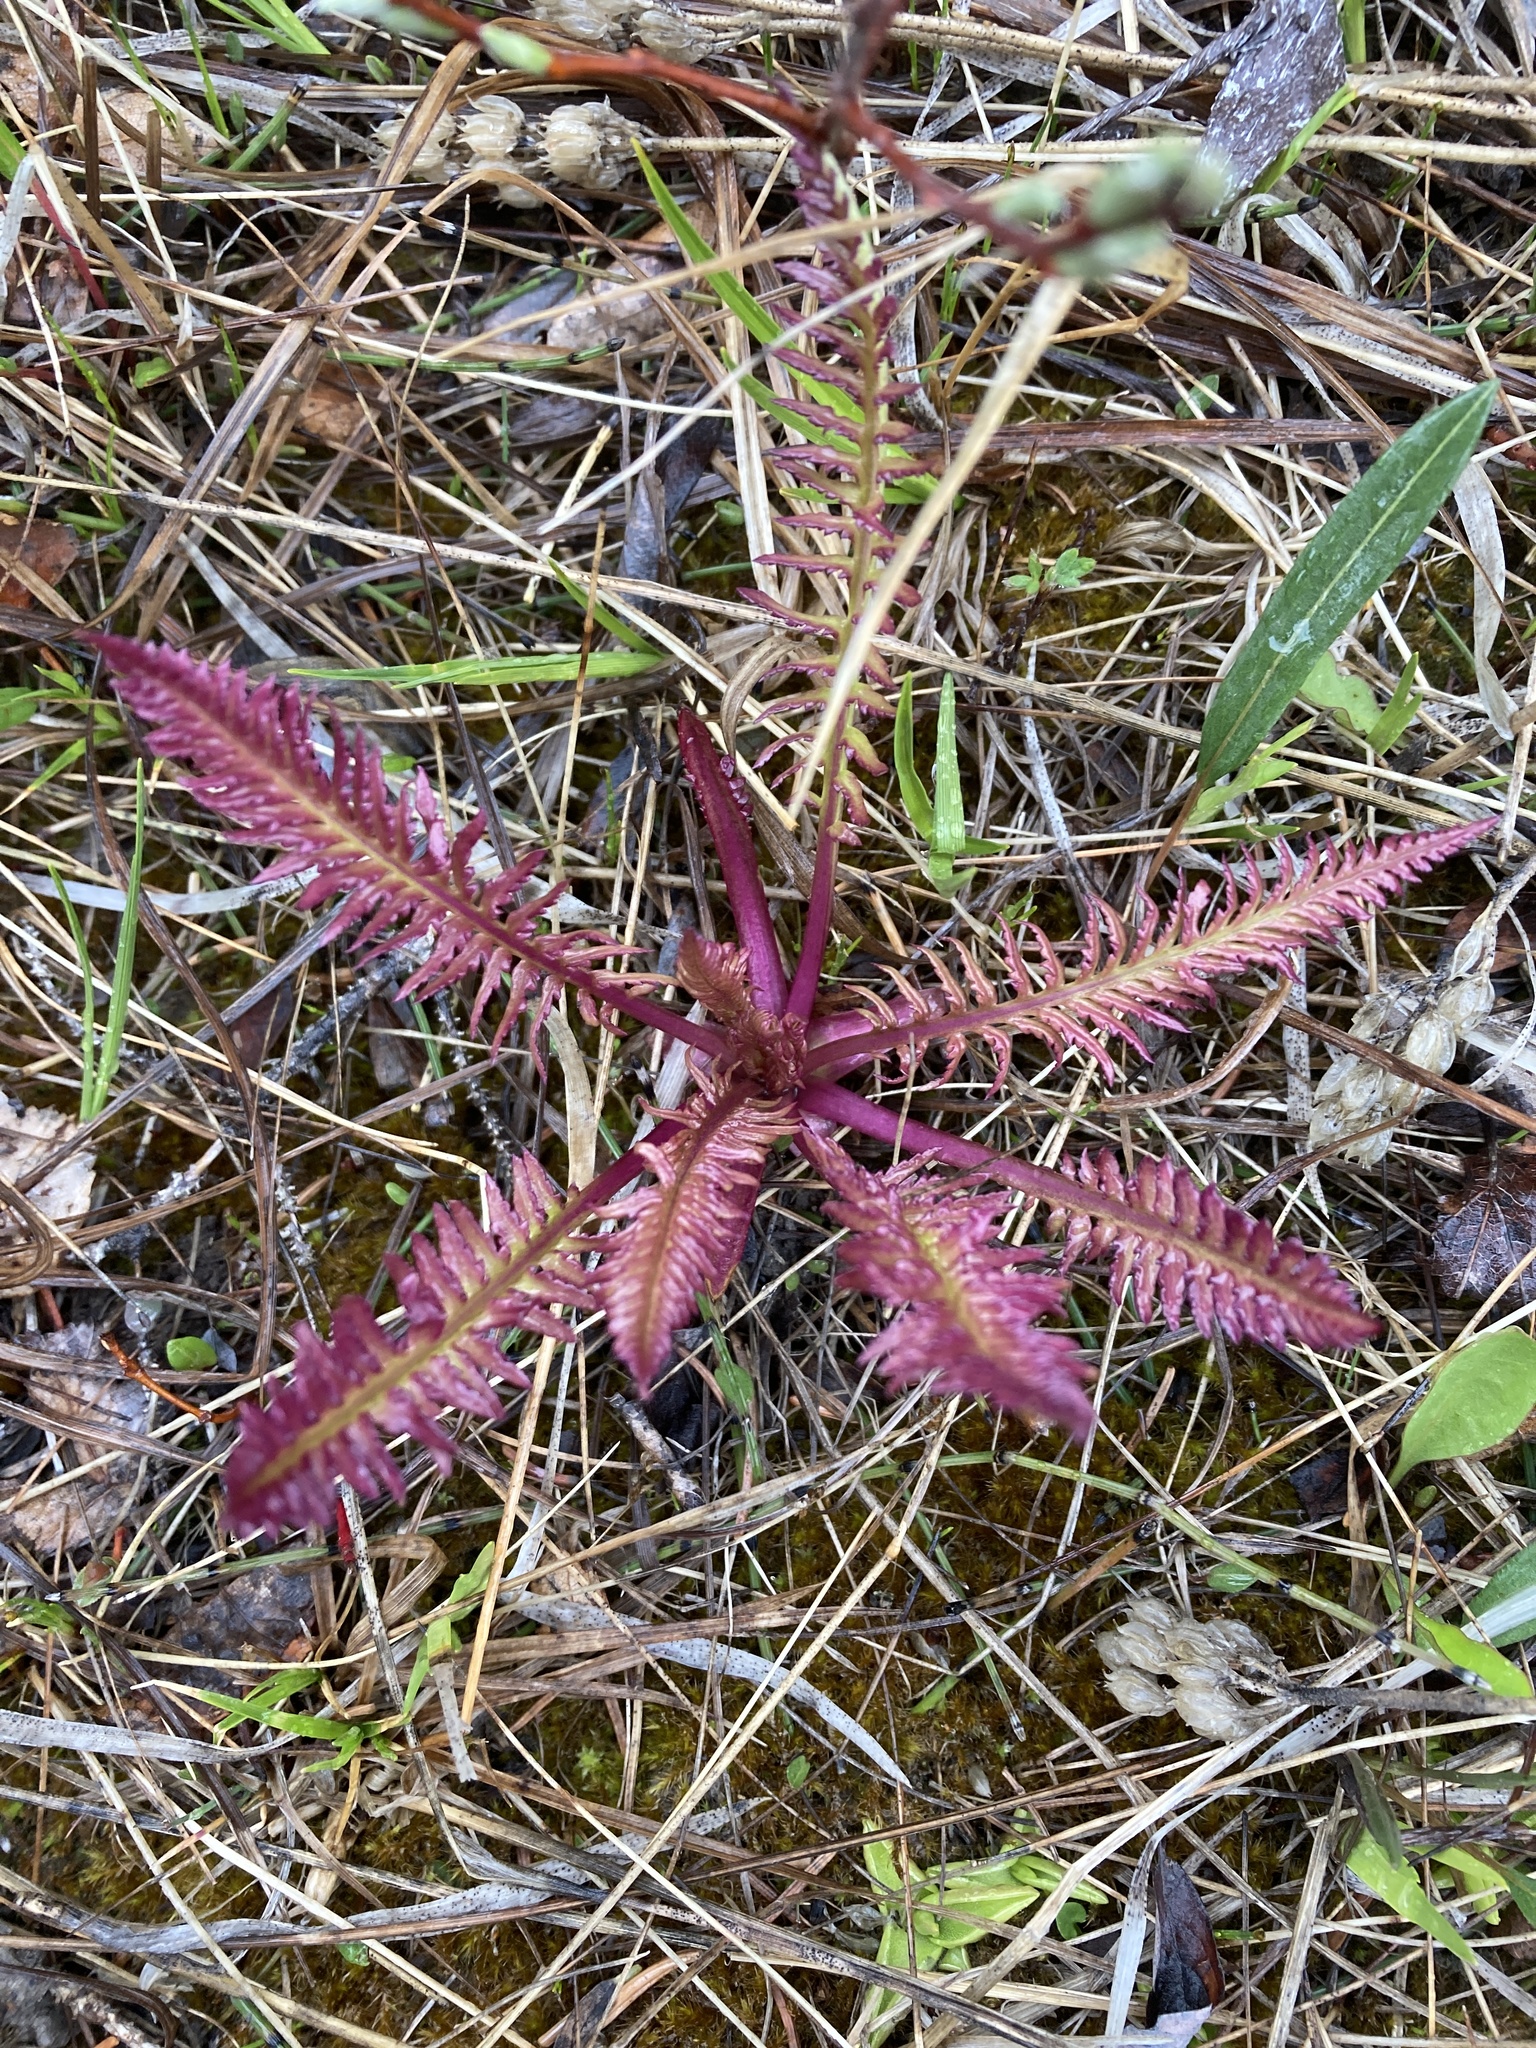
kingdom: Plantae
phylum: Tracheophyta
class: Magnoliopsida
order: Lamiales
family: Orobanchaceae
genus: Pedicularis
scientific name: Pedicularis groenlandica
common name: Elephant's-head
